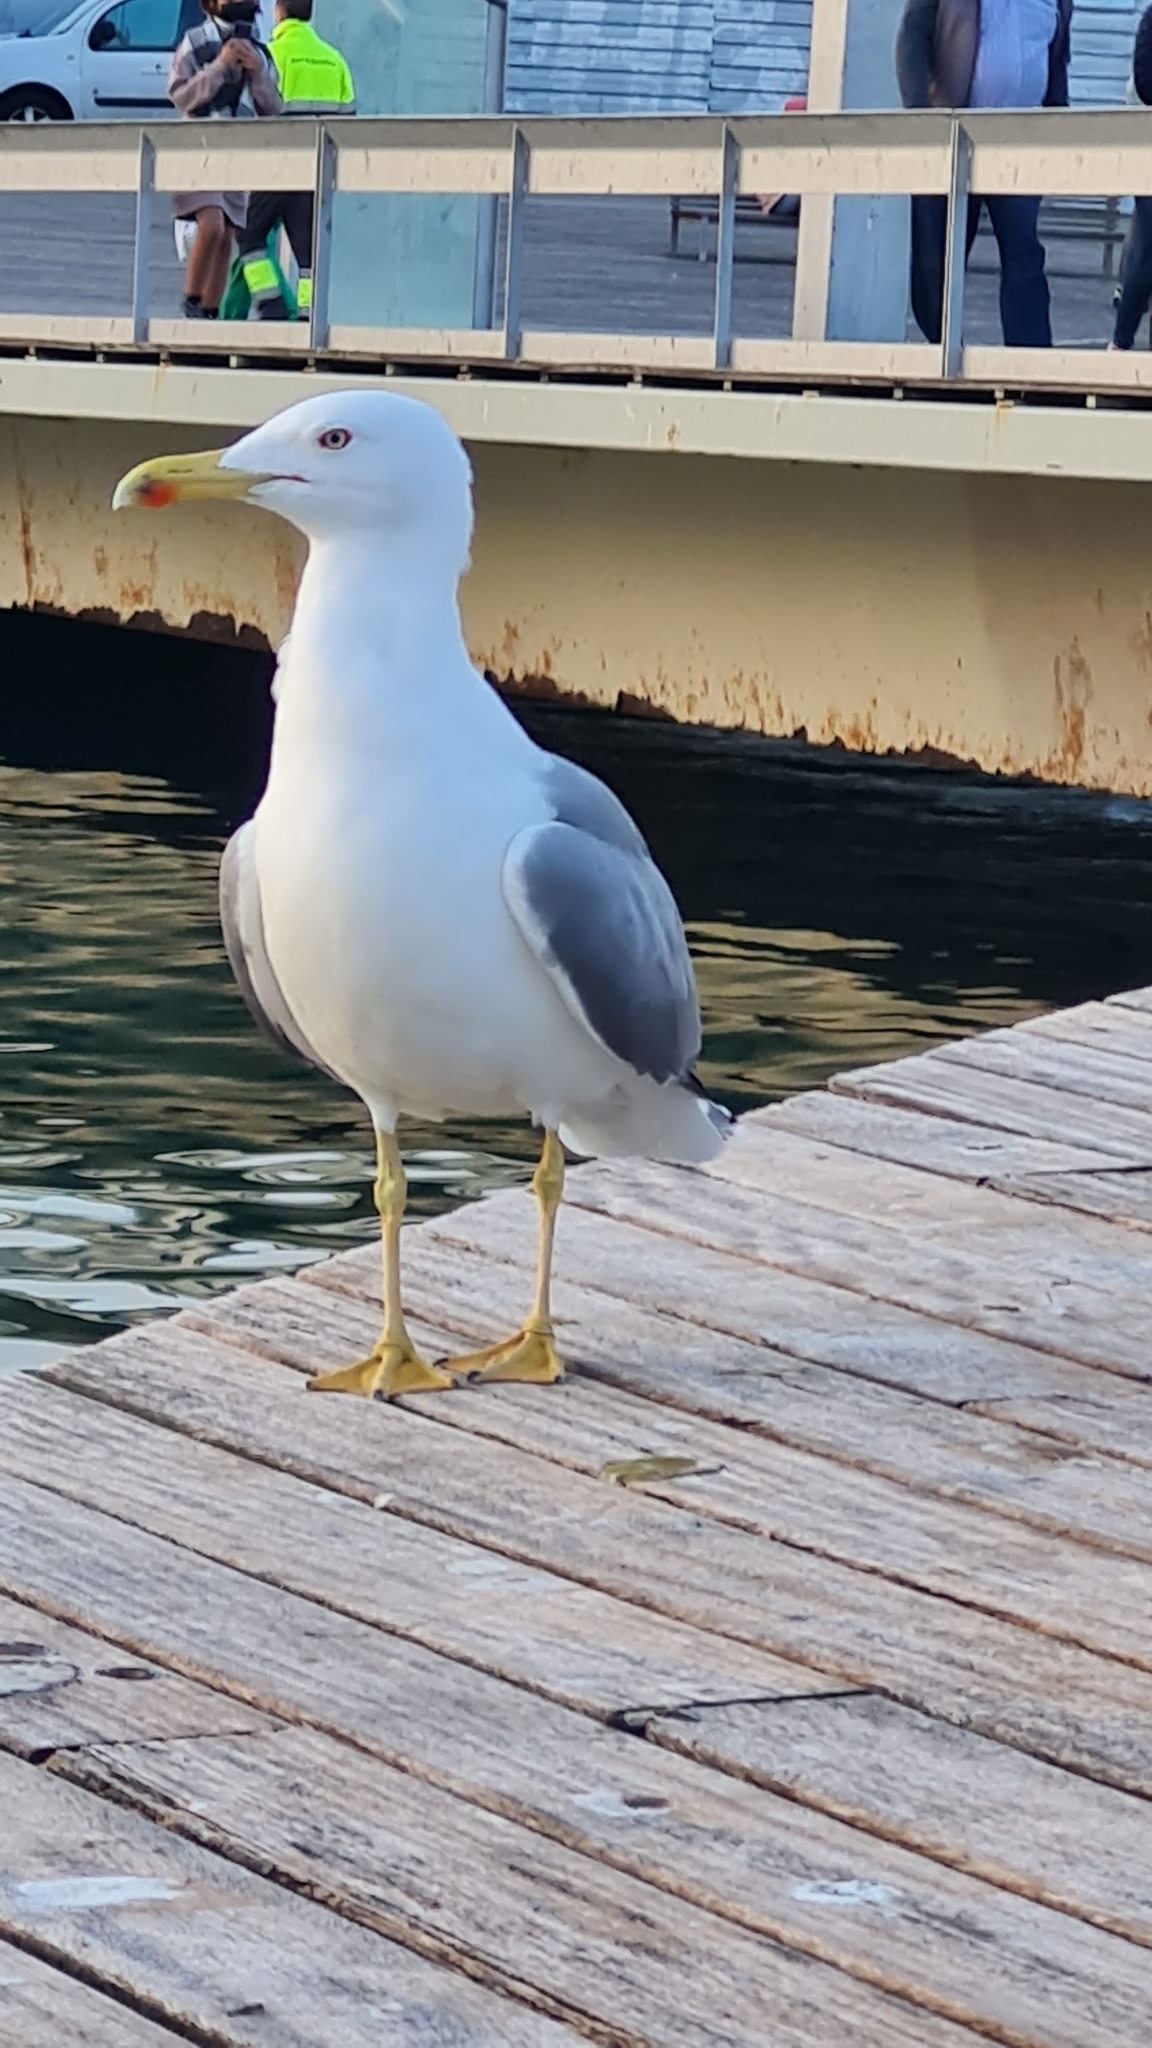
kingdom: Animalia
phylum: Chordata
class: Aves
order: Charadriiformes
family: Laridae
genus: Larus
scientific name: Larus michahellis
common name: Yellow-legged gull
